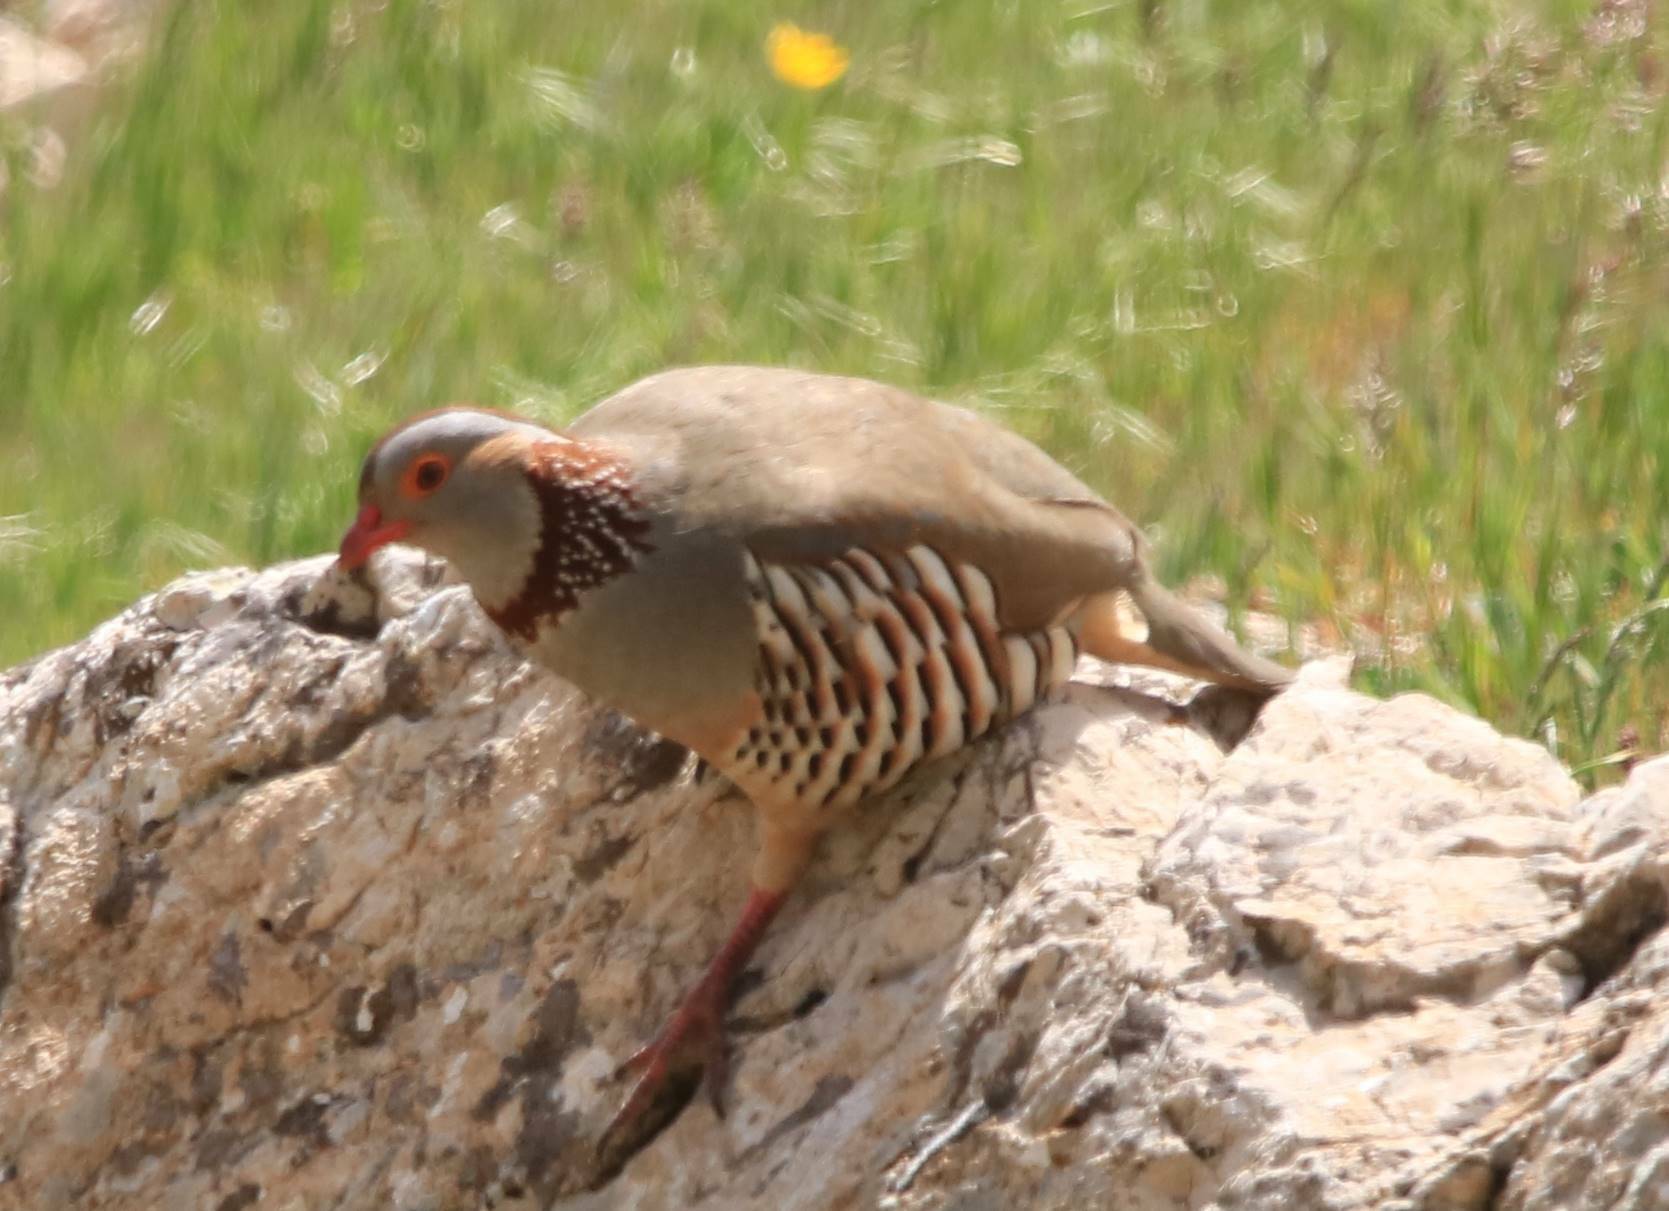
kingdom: Animalia
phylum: Chordata
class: Aves
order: Galliformes
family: Phasianidae
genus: Alectoris
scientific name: Alectoris barbara
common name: Barbary partridge
